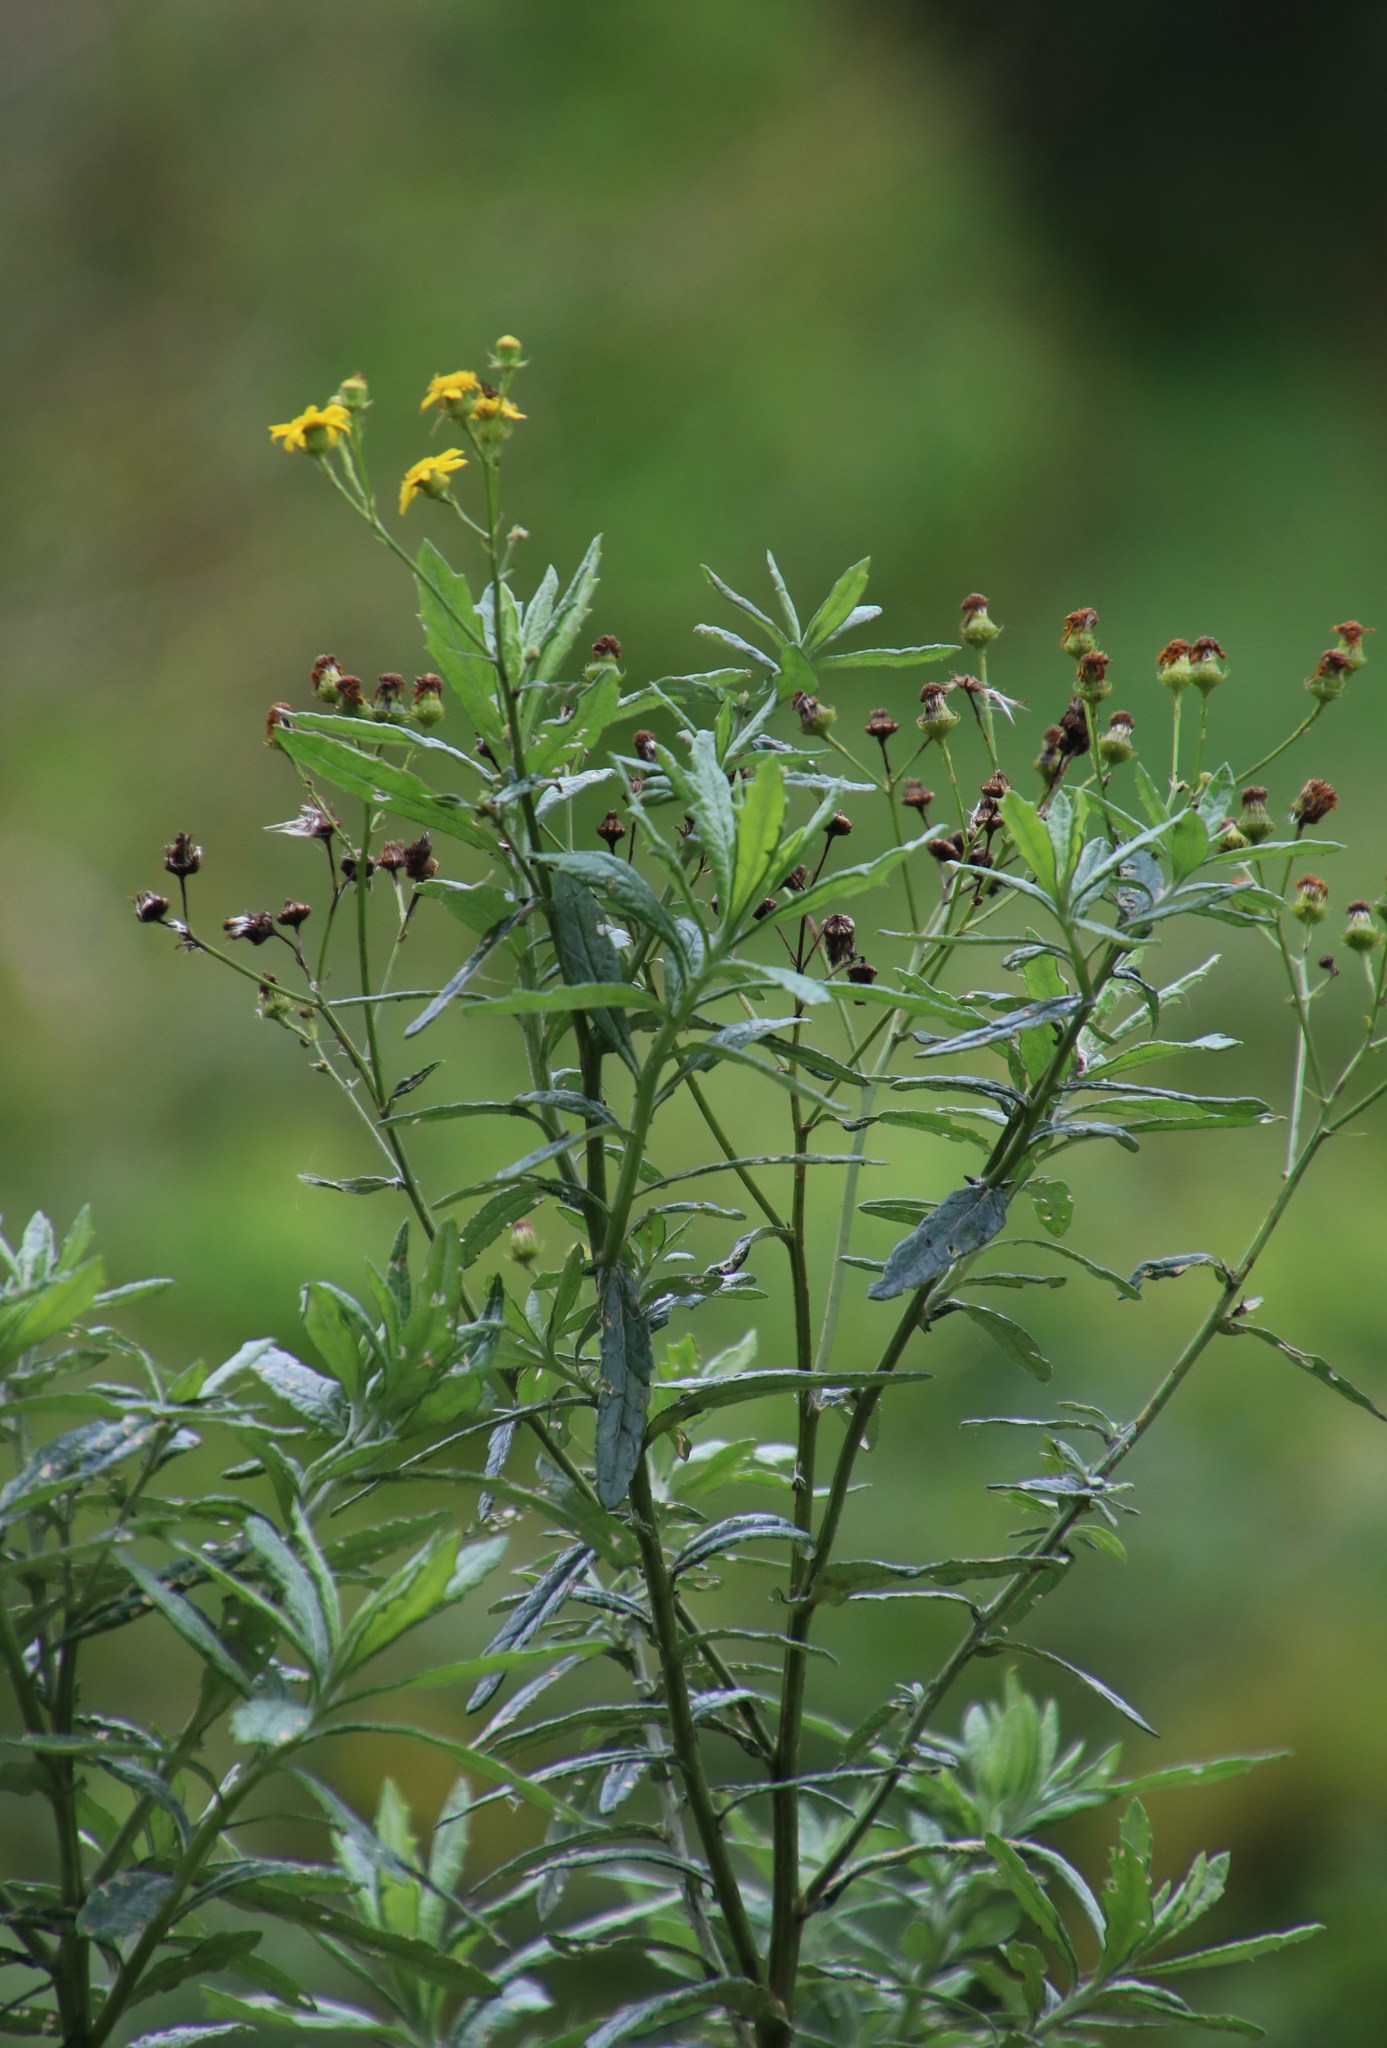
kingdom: Plantae
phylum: Tracheophyta
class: Magnoliopsida
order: Asterales
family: Asteraceae
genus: Senecio
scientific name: Senecio pterophorus
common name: Shoddy ragwort
